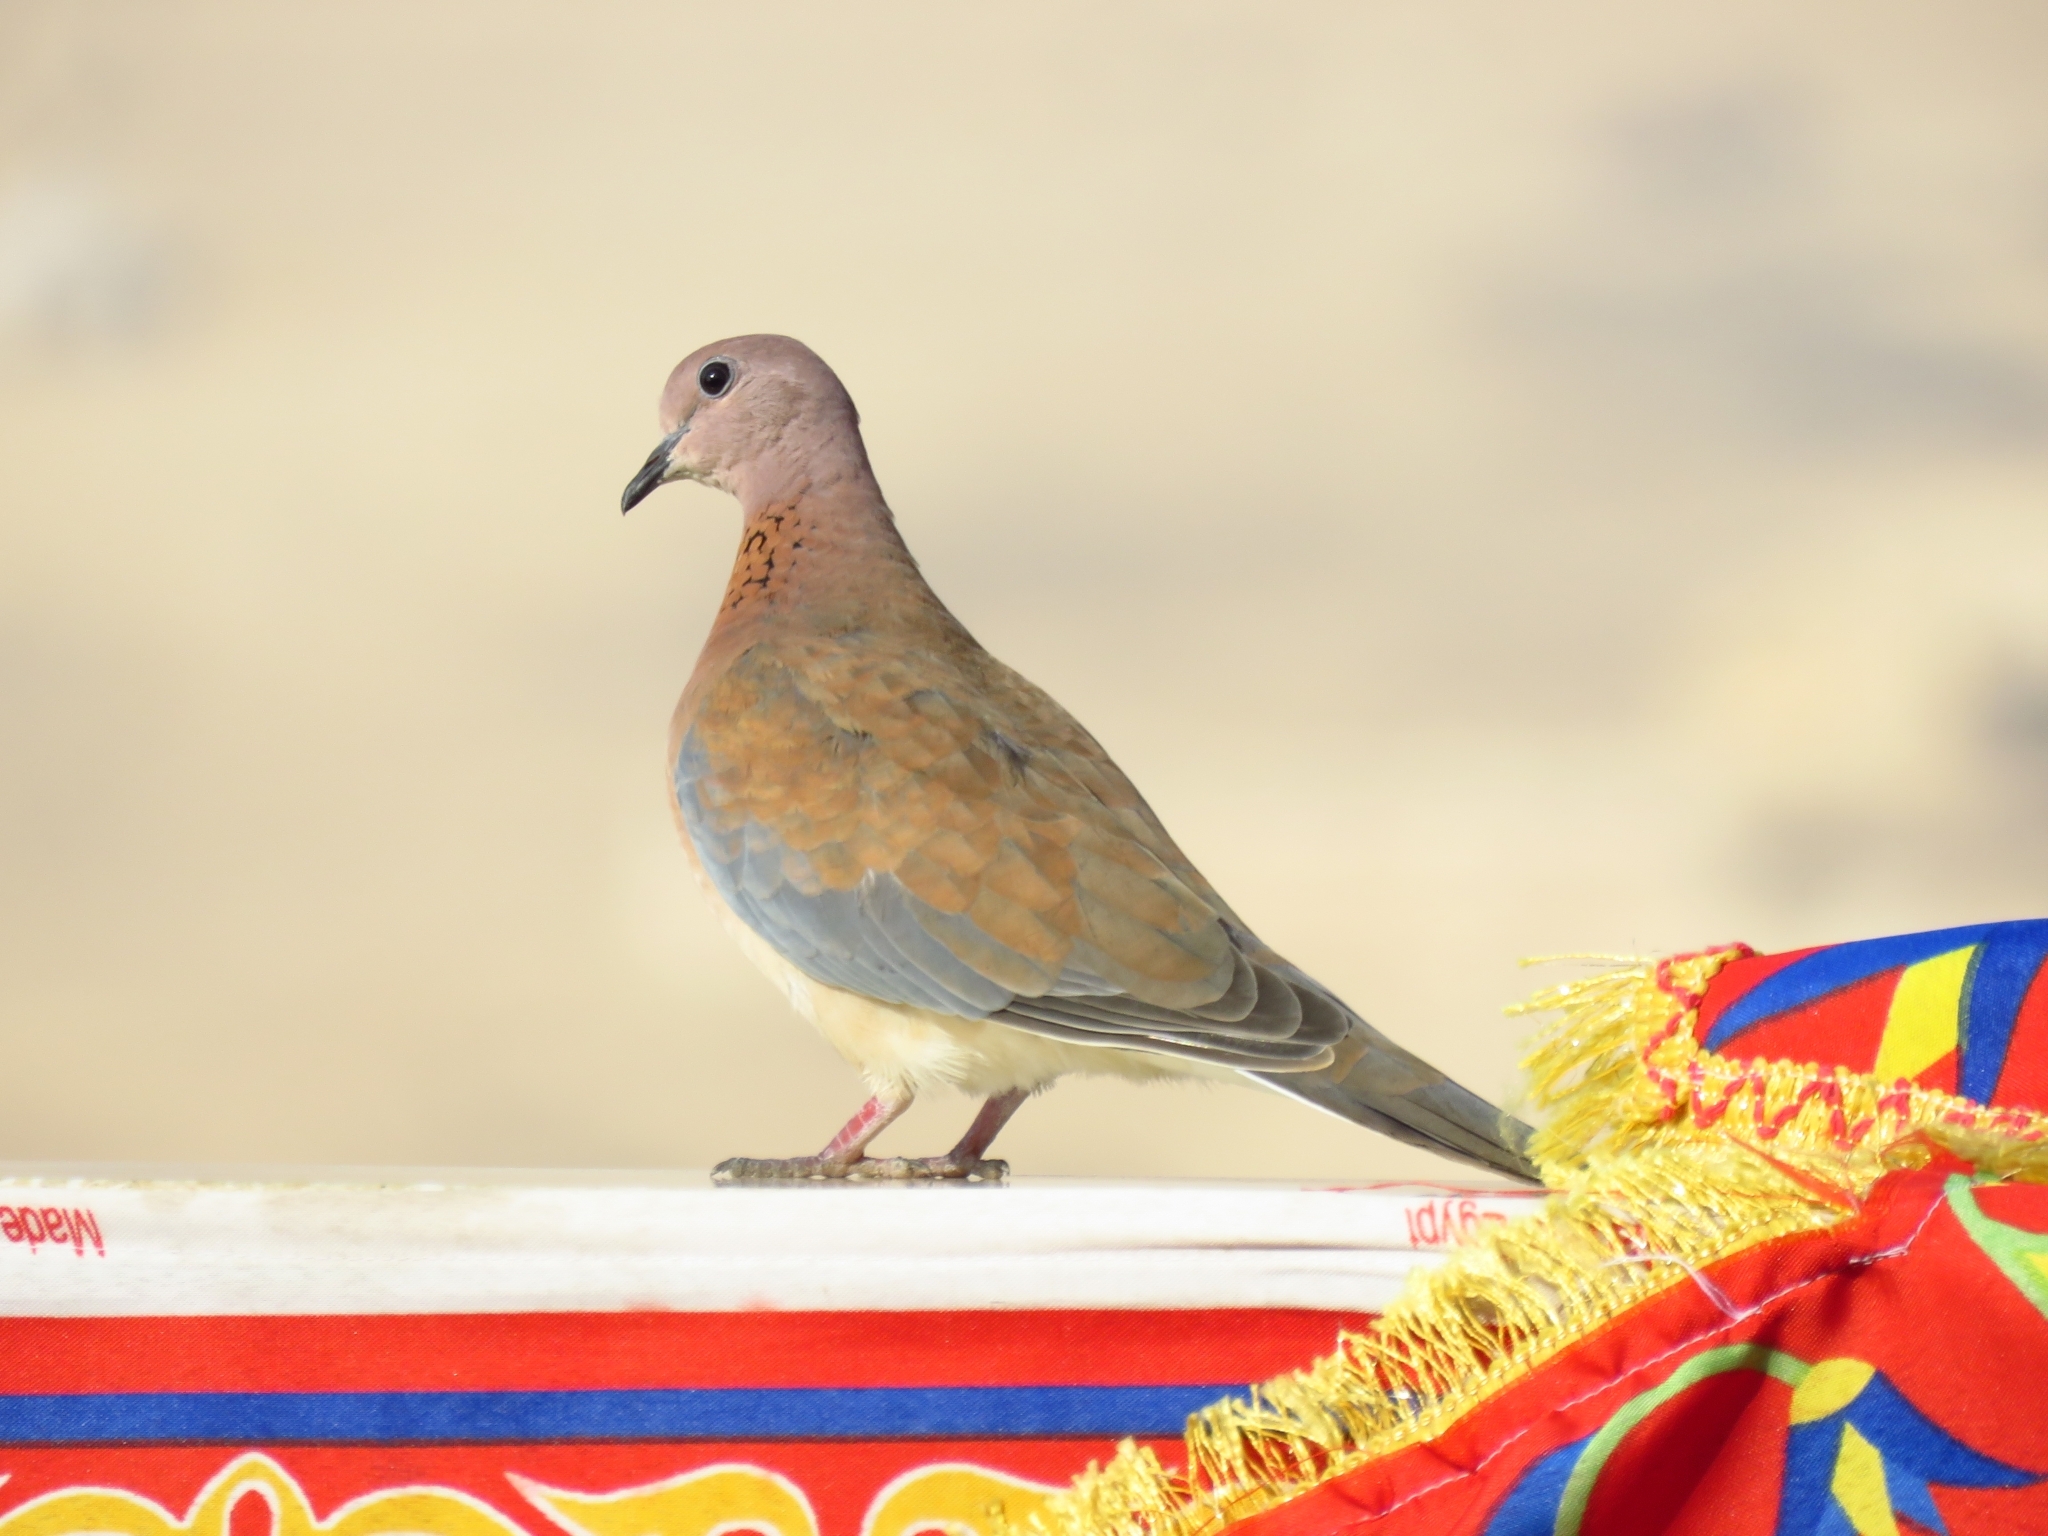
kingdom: Animalia
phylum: Chordata
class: Aves
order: Columbiformes
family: Columbidae
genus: Spilopelia
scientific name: Spilopelia senegalensis
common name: Laughing dove
